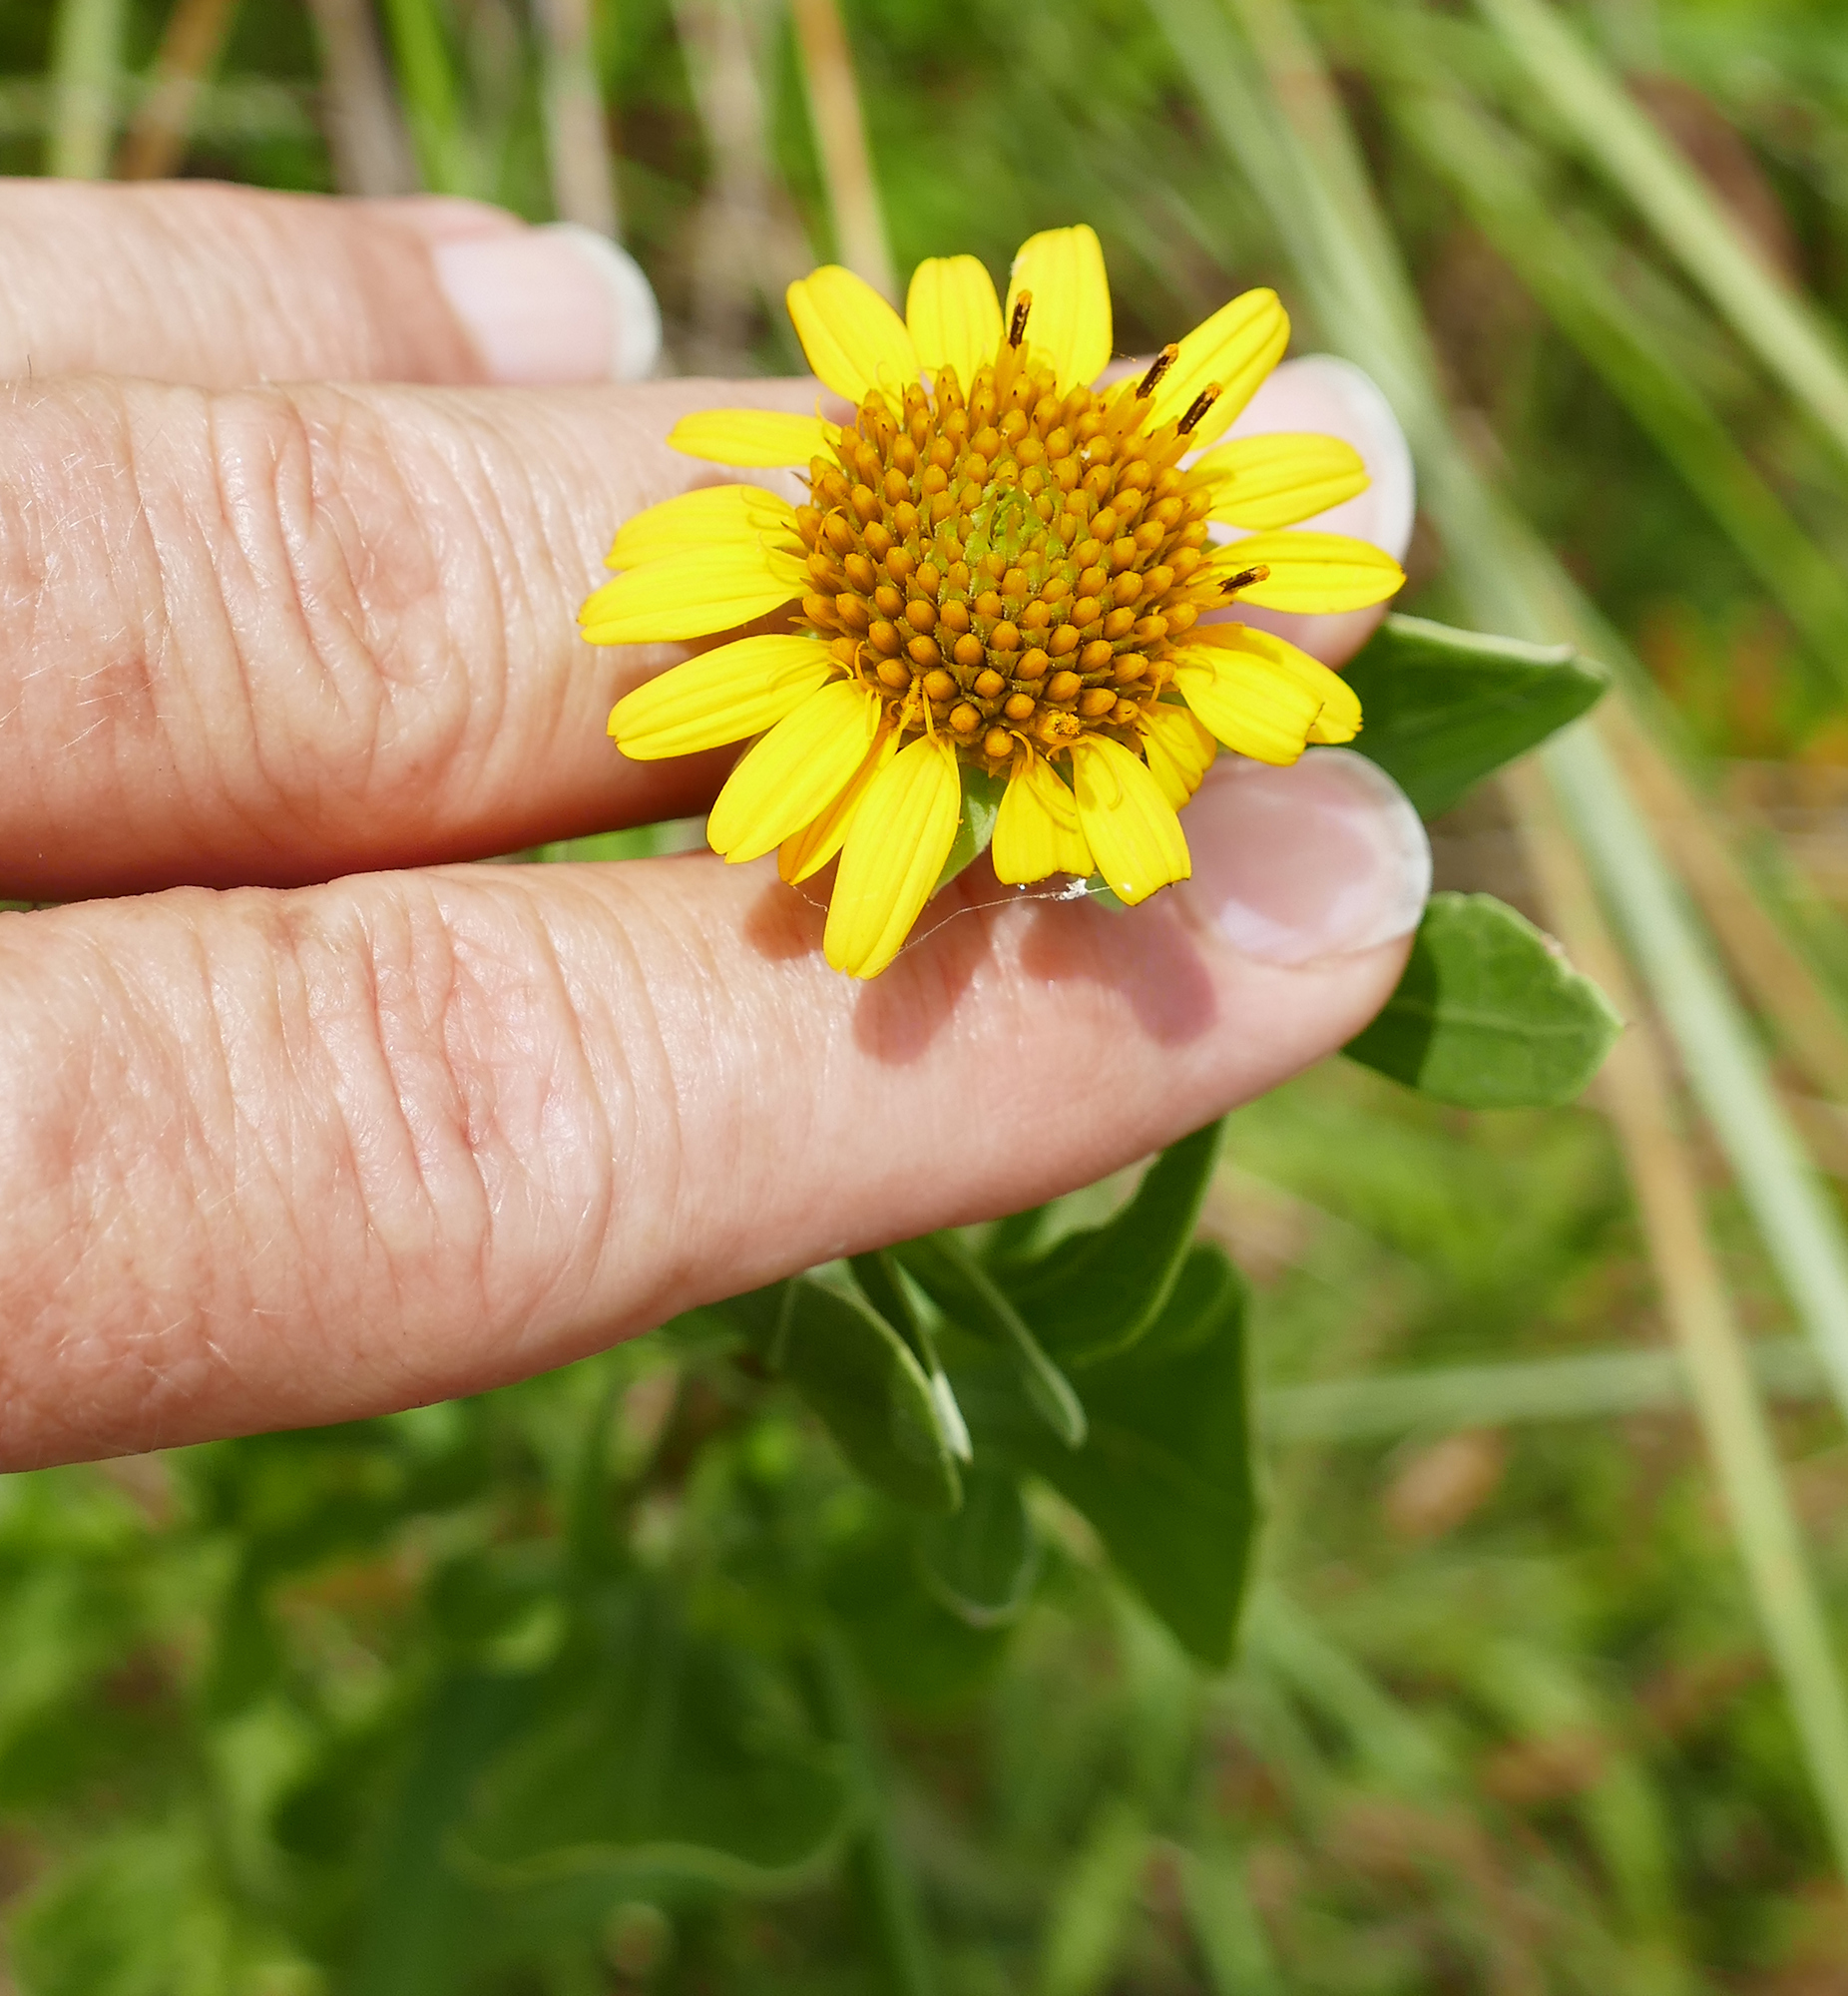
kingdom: Plantae
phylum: Tracheophyta
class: Magnoliopsida
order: Asterales
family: Asteraceae
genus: Borrichia
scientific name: Borrichia frutescens
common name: Sea oxeye
